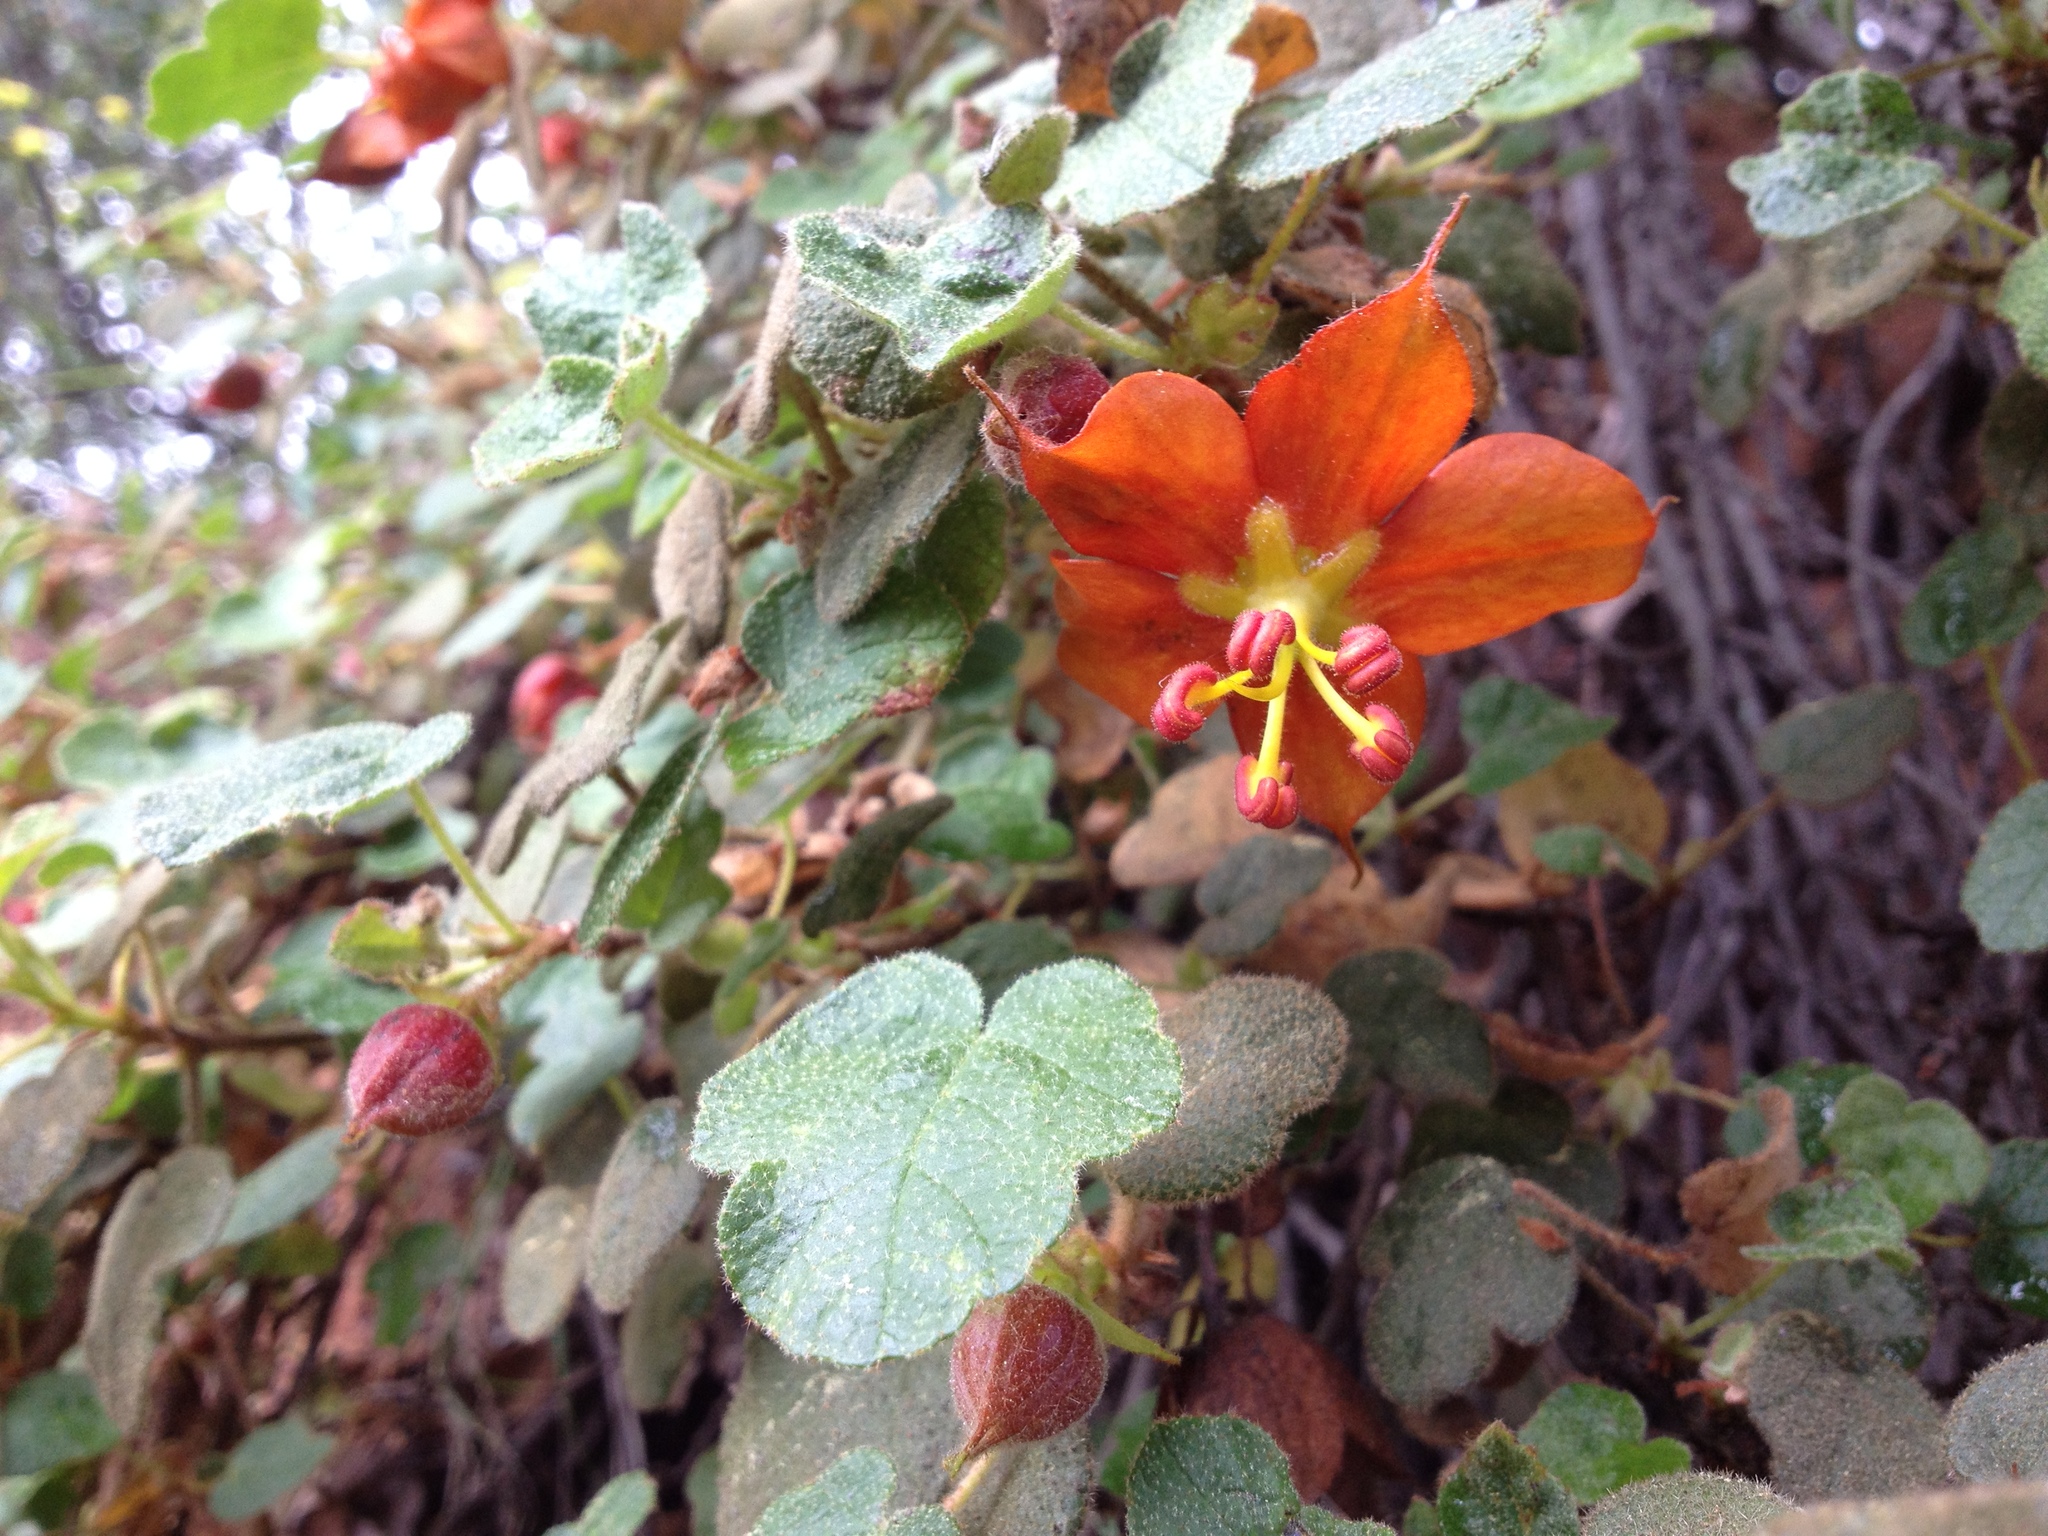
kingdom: Plantae
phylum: Tracheophyta
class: Magnoliopsida
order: Malvales
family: Malvaceae
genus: Fremontodendron
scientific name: Fremontodendron decumbens
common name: Pine hill flannelbush
